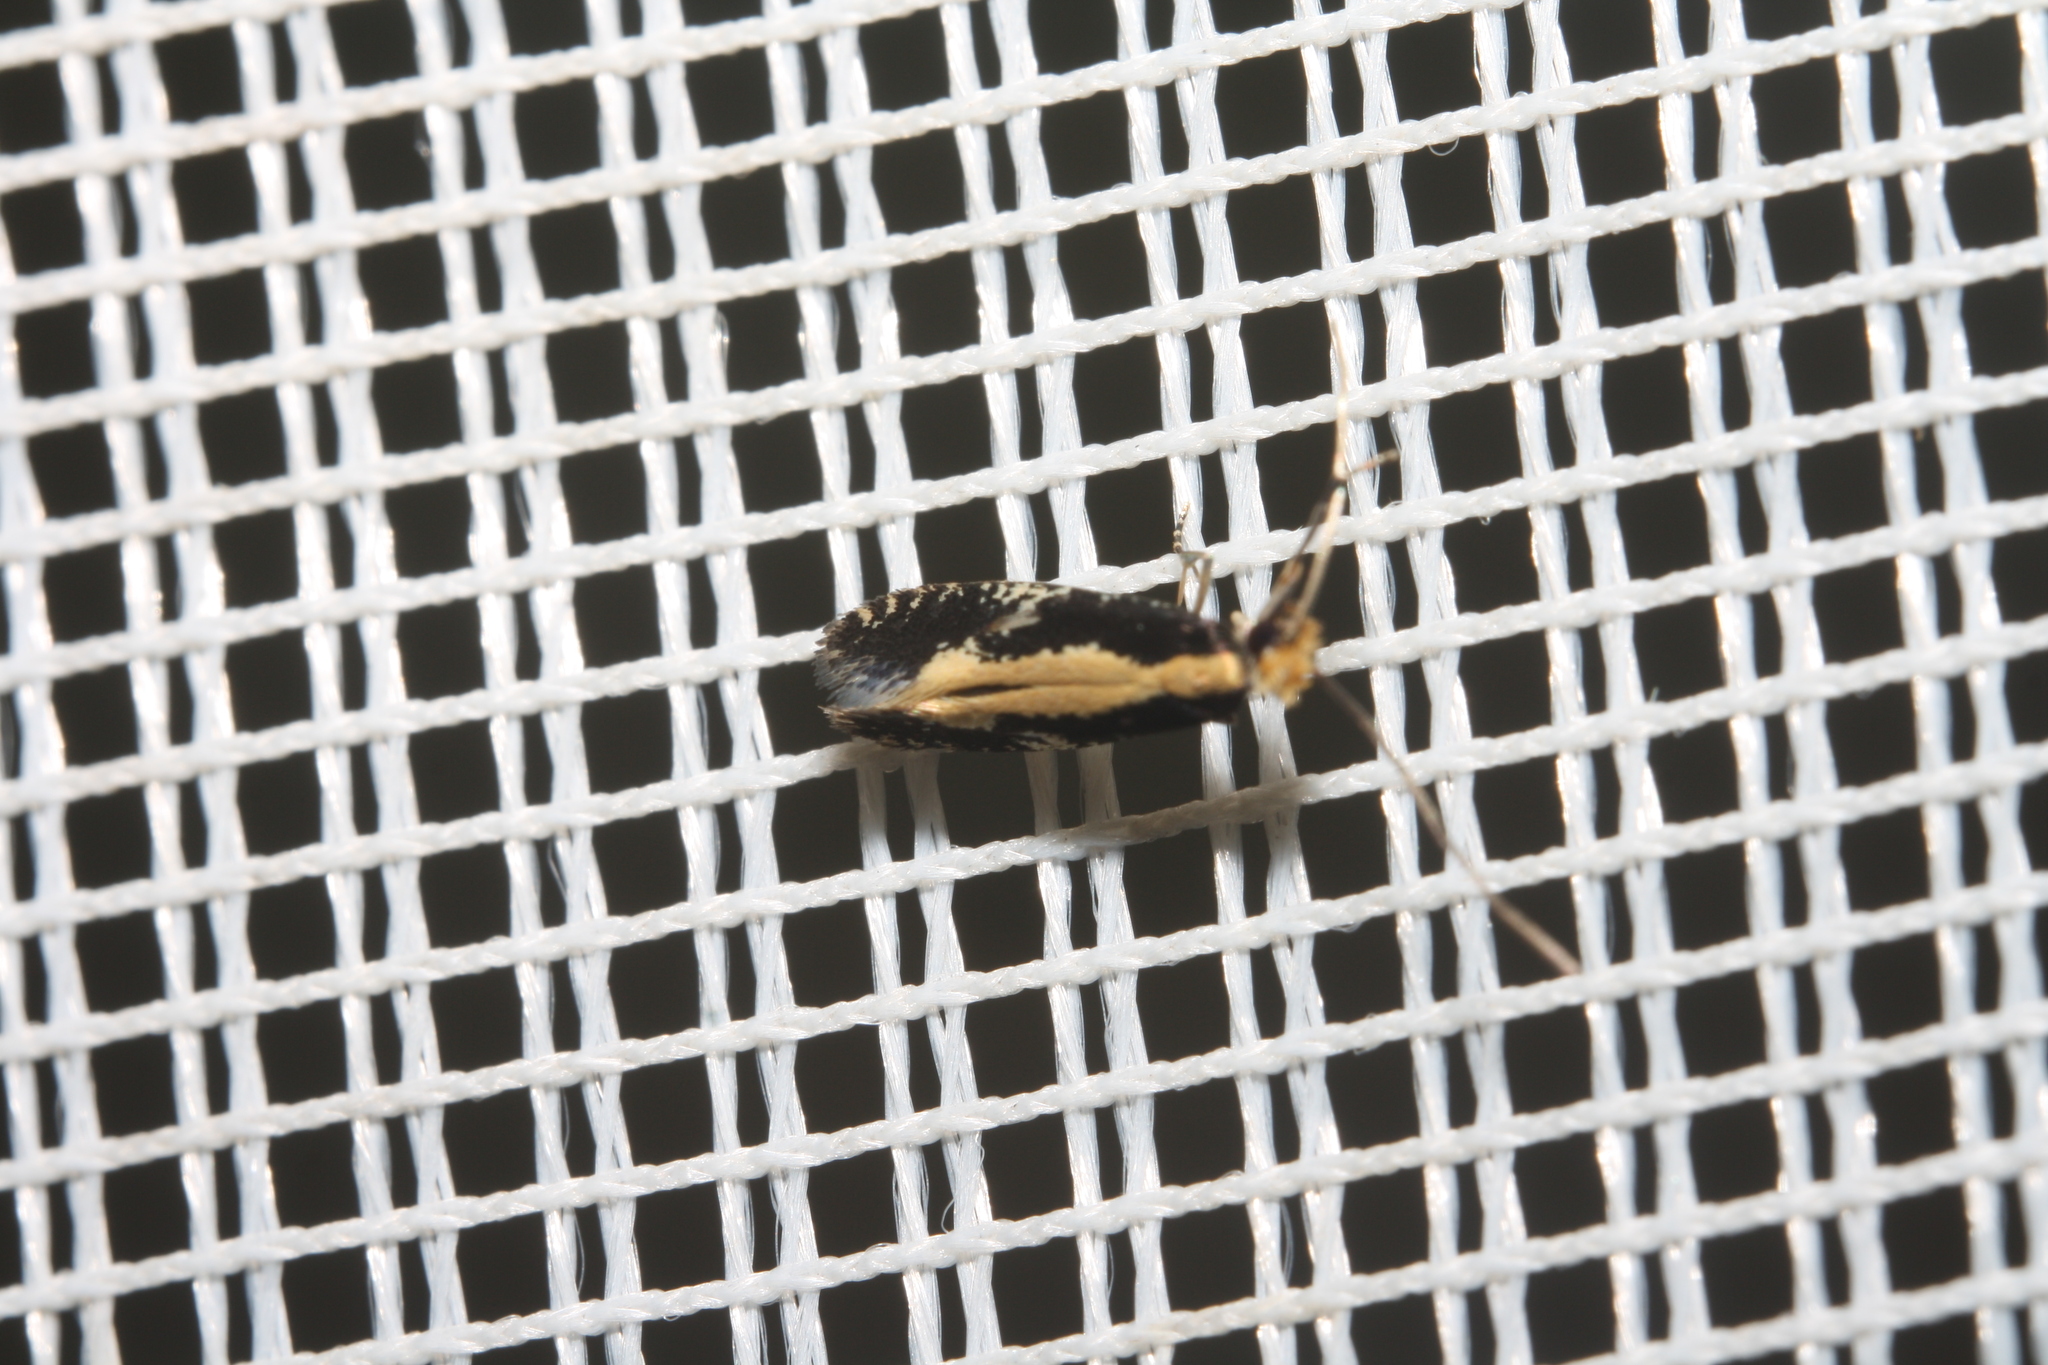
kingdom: Animalia
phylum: Arthropoda
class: Insecta
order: Lepidoptera
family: Tineidae
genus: Monopis
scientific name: Monopis obviella
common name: Tineid moth
